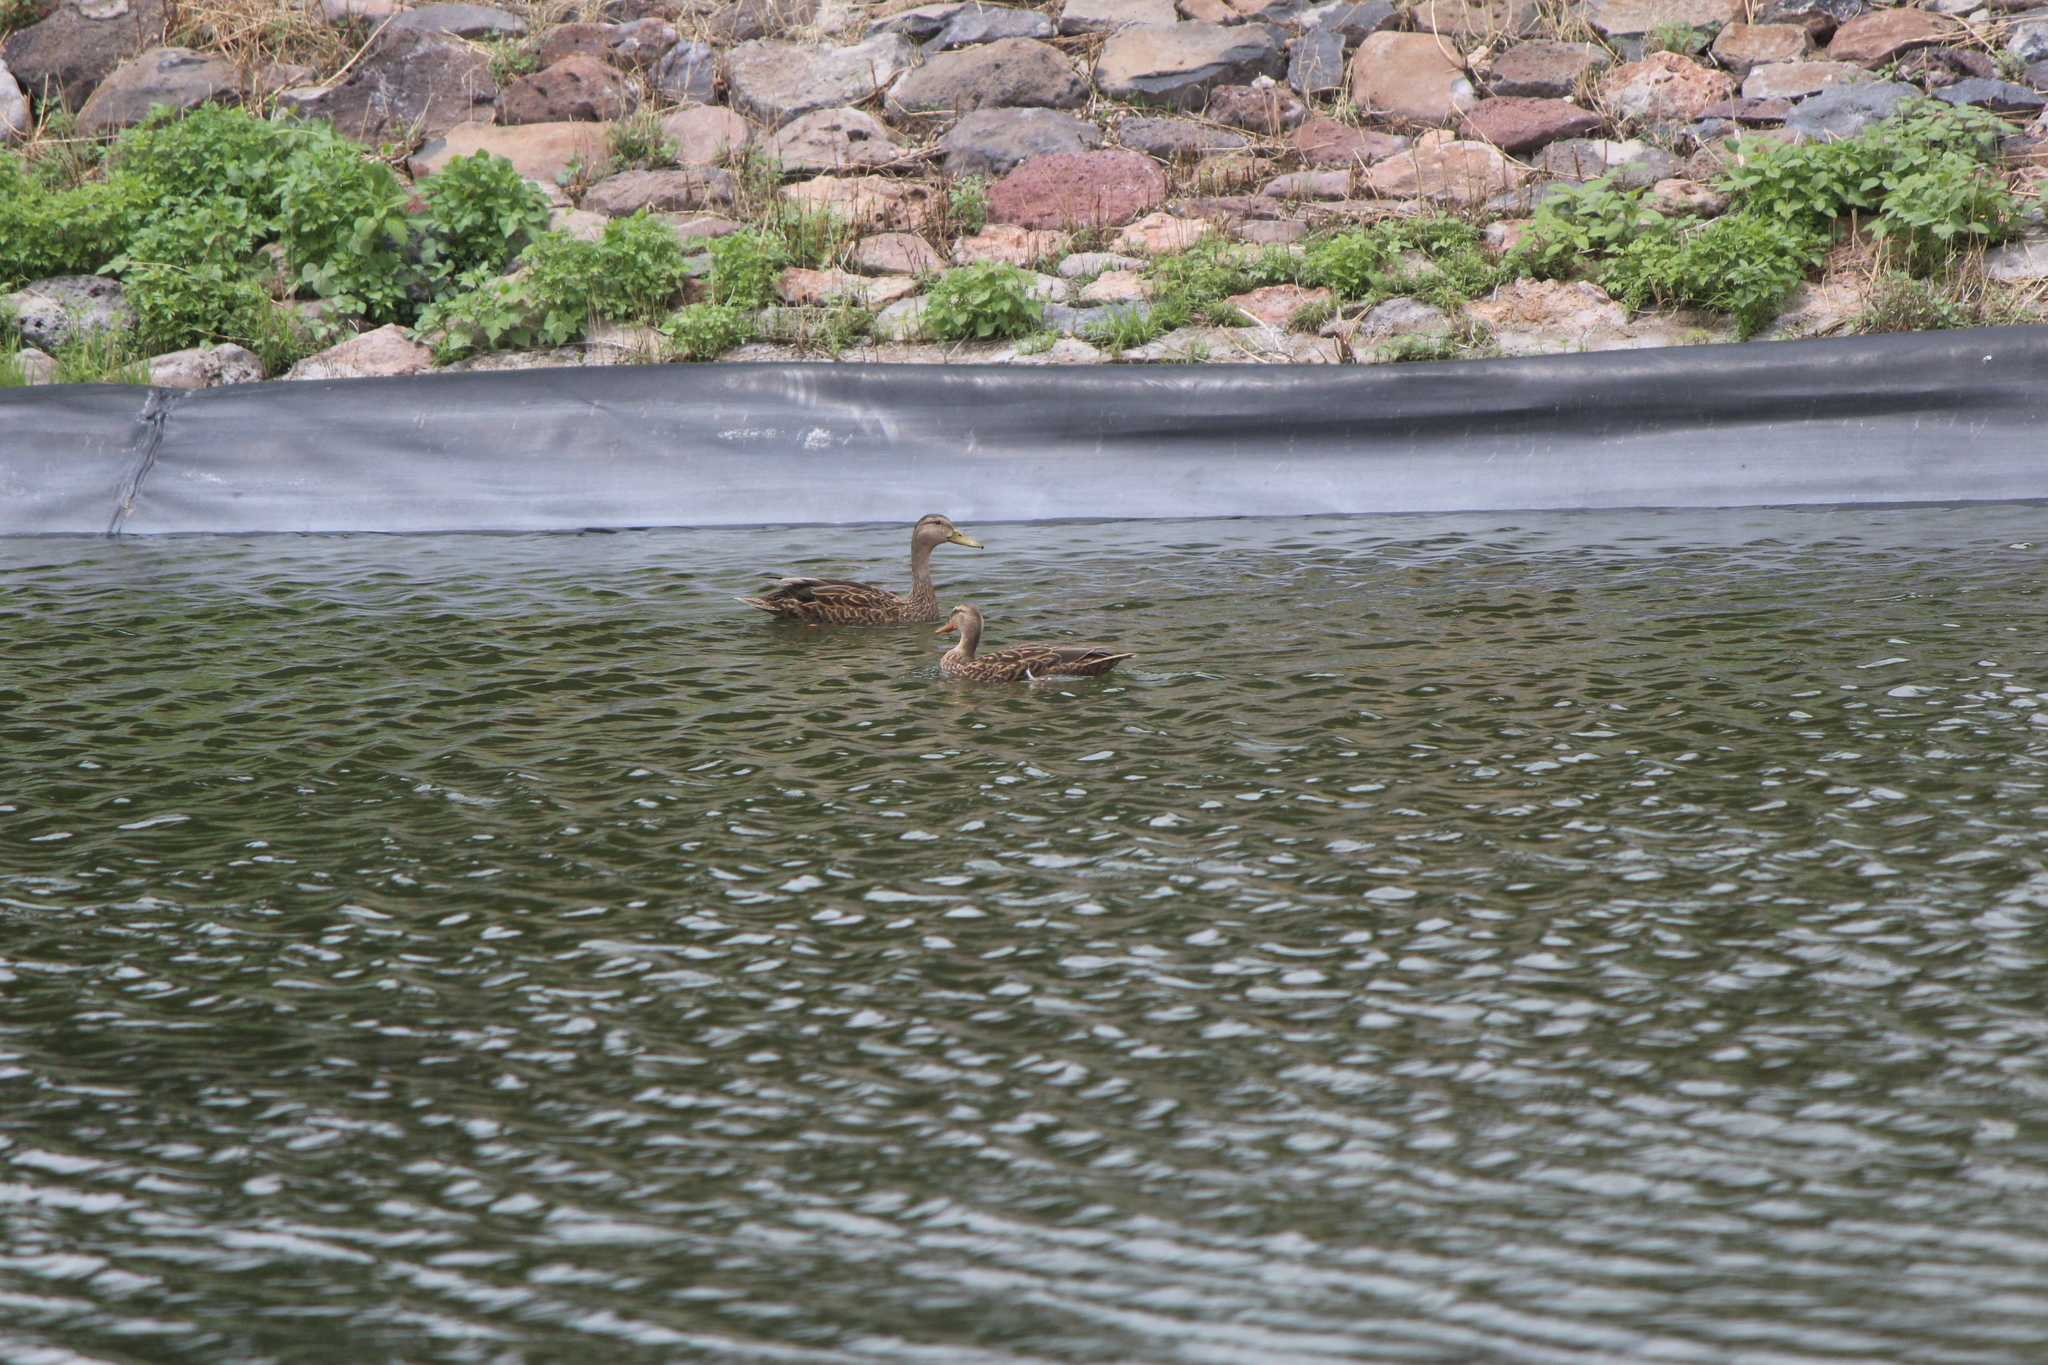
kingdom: Animalia
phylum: Chordata
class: Aves
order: Anseriformes
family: Anatidae
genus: Anas
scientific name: Anas diazi
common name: Mexican duck
